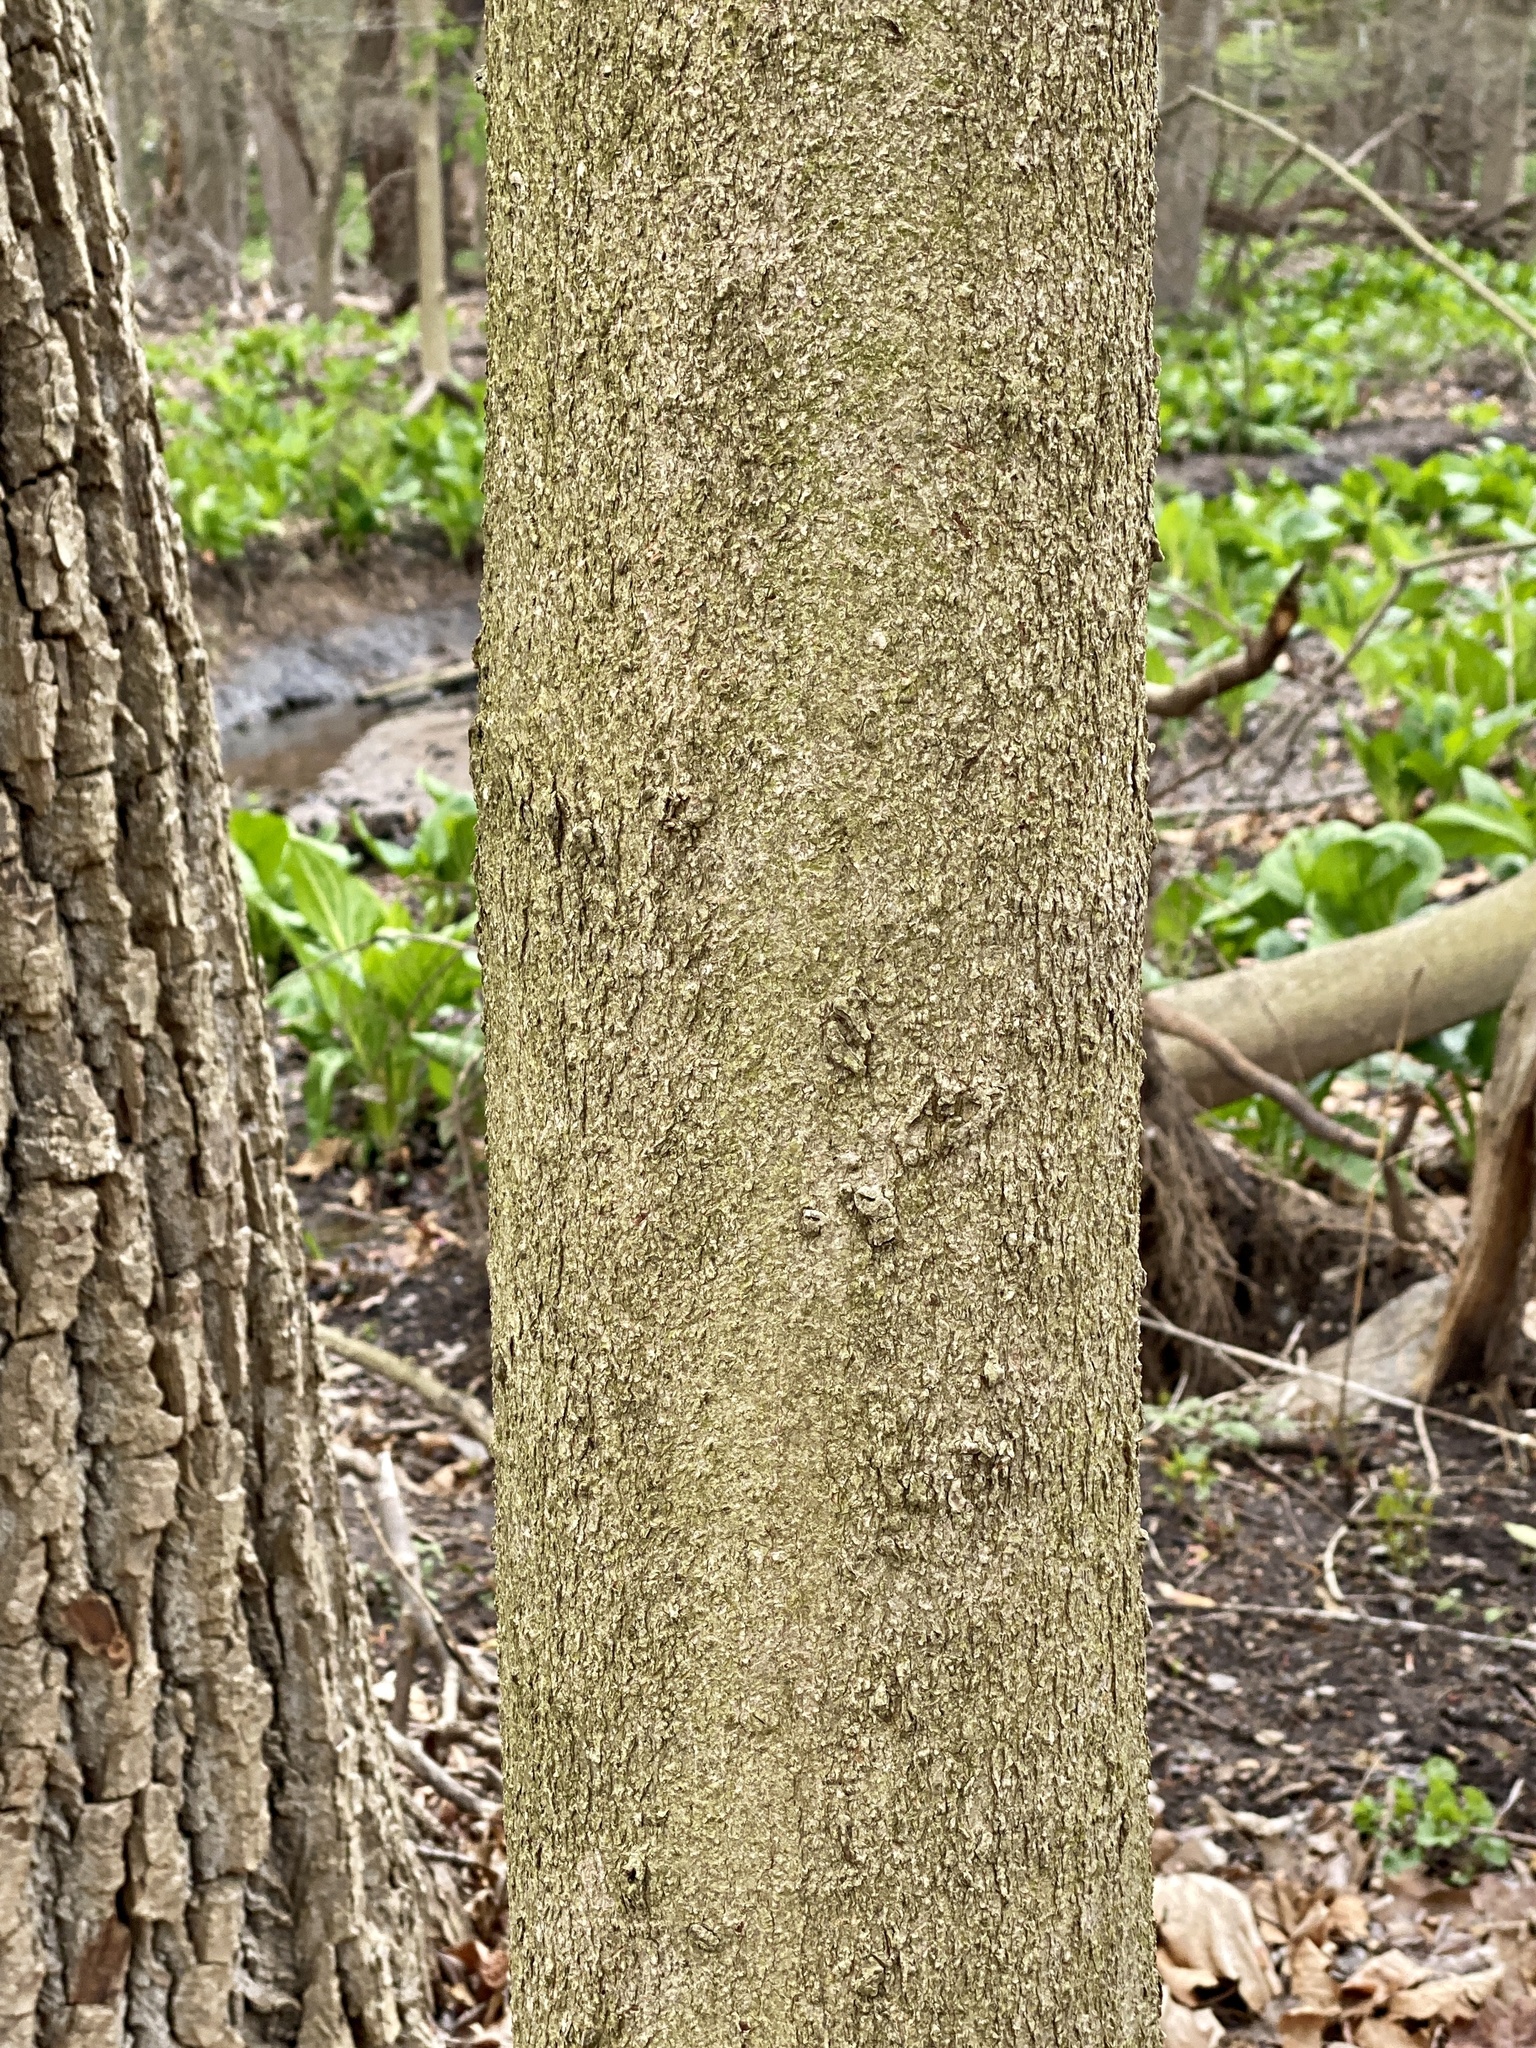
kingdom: Plantae
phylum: Tracheophyta
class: Magnoliopsida
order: Sapindales
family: Sapindaceae
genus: Aesculus
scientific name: Aesculus flava
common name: Yellow buckeye
